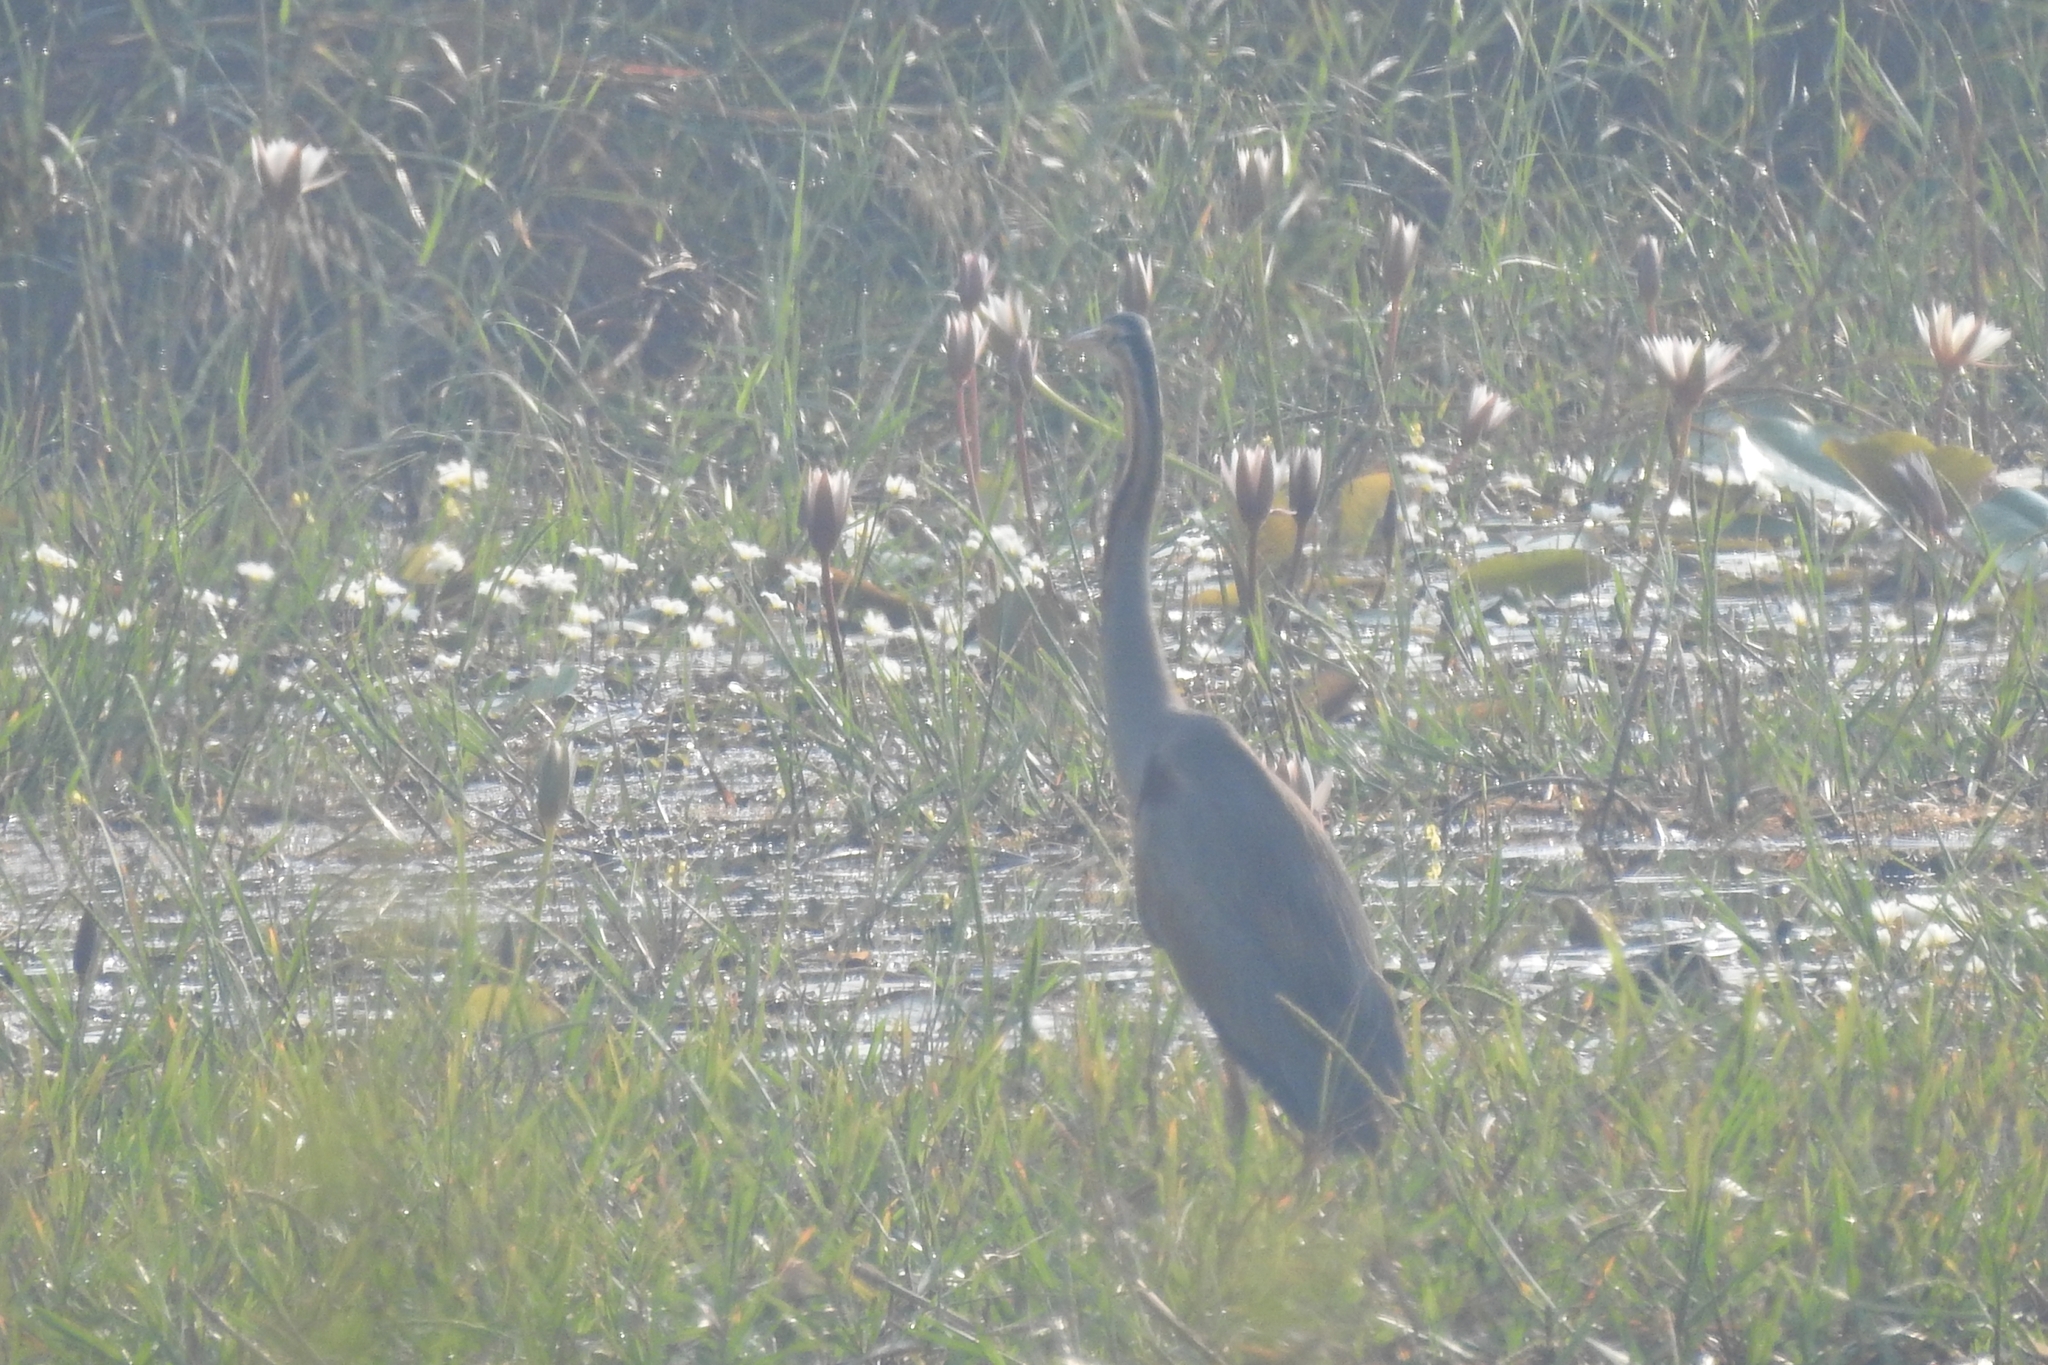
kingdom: Animalia
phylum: Chordata
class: Aves
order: Pelecaniformes
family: Ardeidae
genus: Ardea
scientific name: Ardea purpurea
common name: Purple heron
